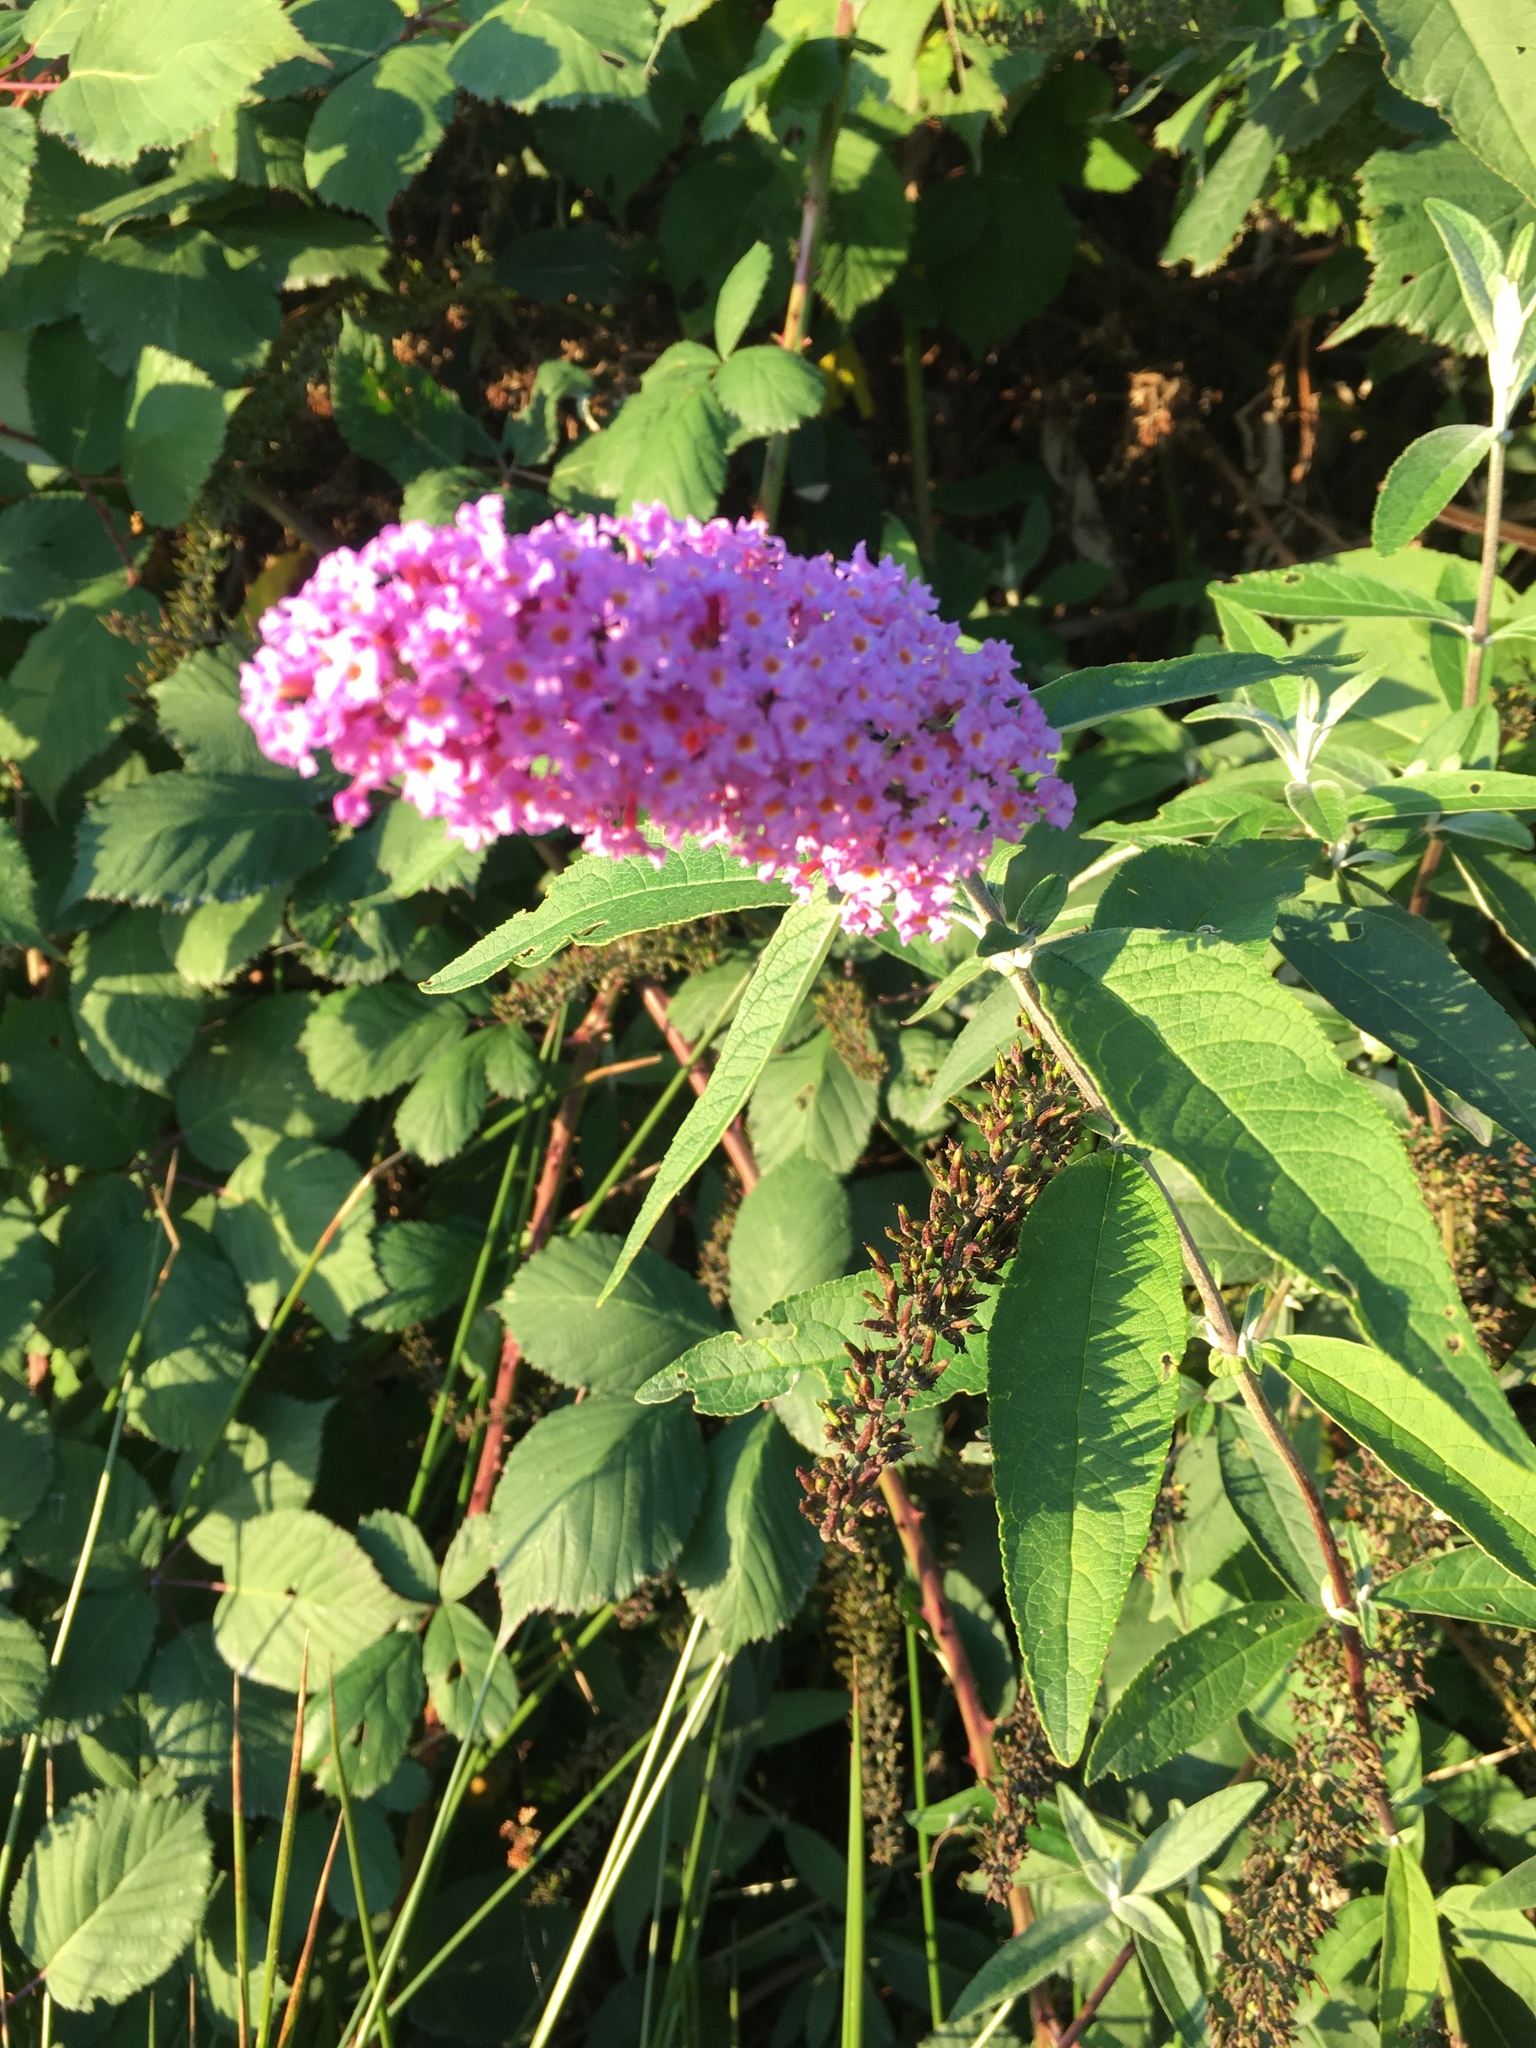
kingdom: Plantae
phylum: Tracheophyta
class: Magnoliopsida
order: Lamiales
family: Scrophulariaceae
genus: Buddleja
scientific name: Buddleja davidii
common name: Butterfly-bush
